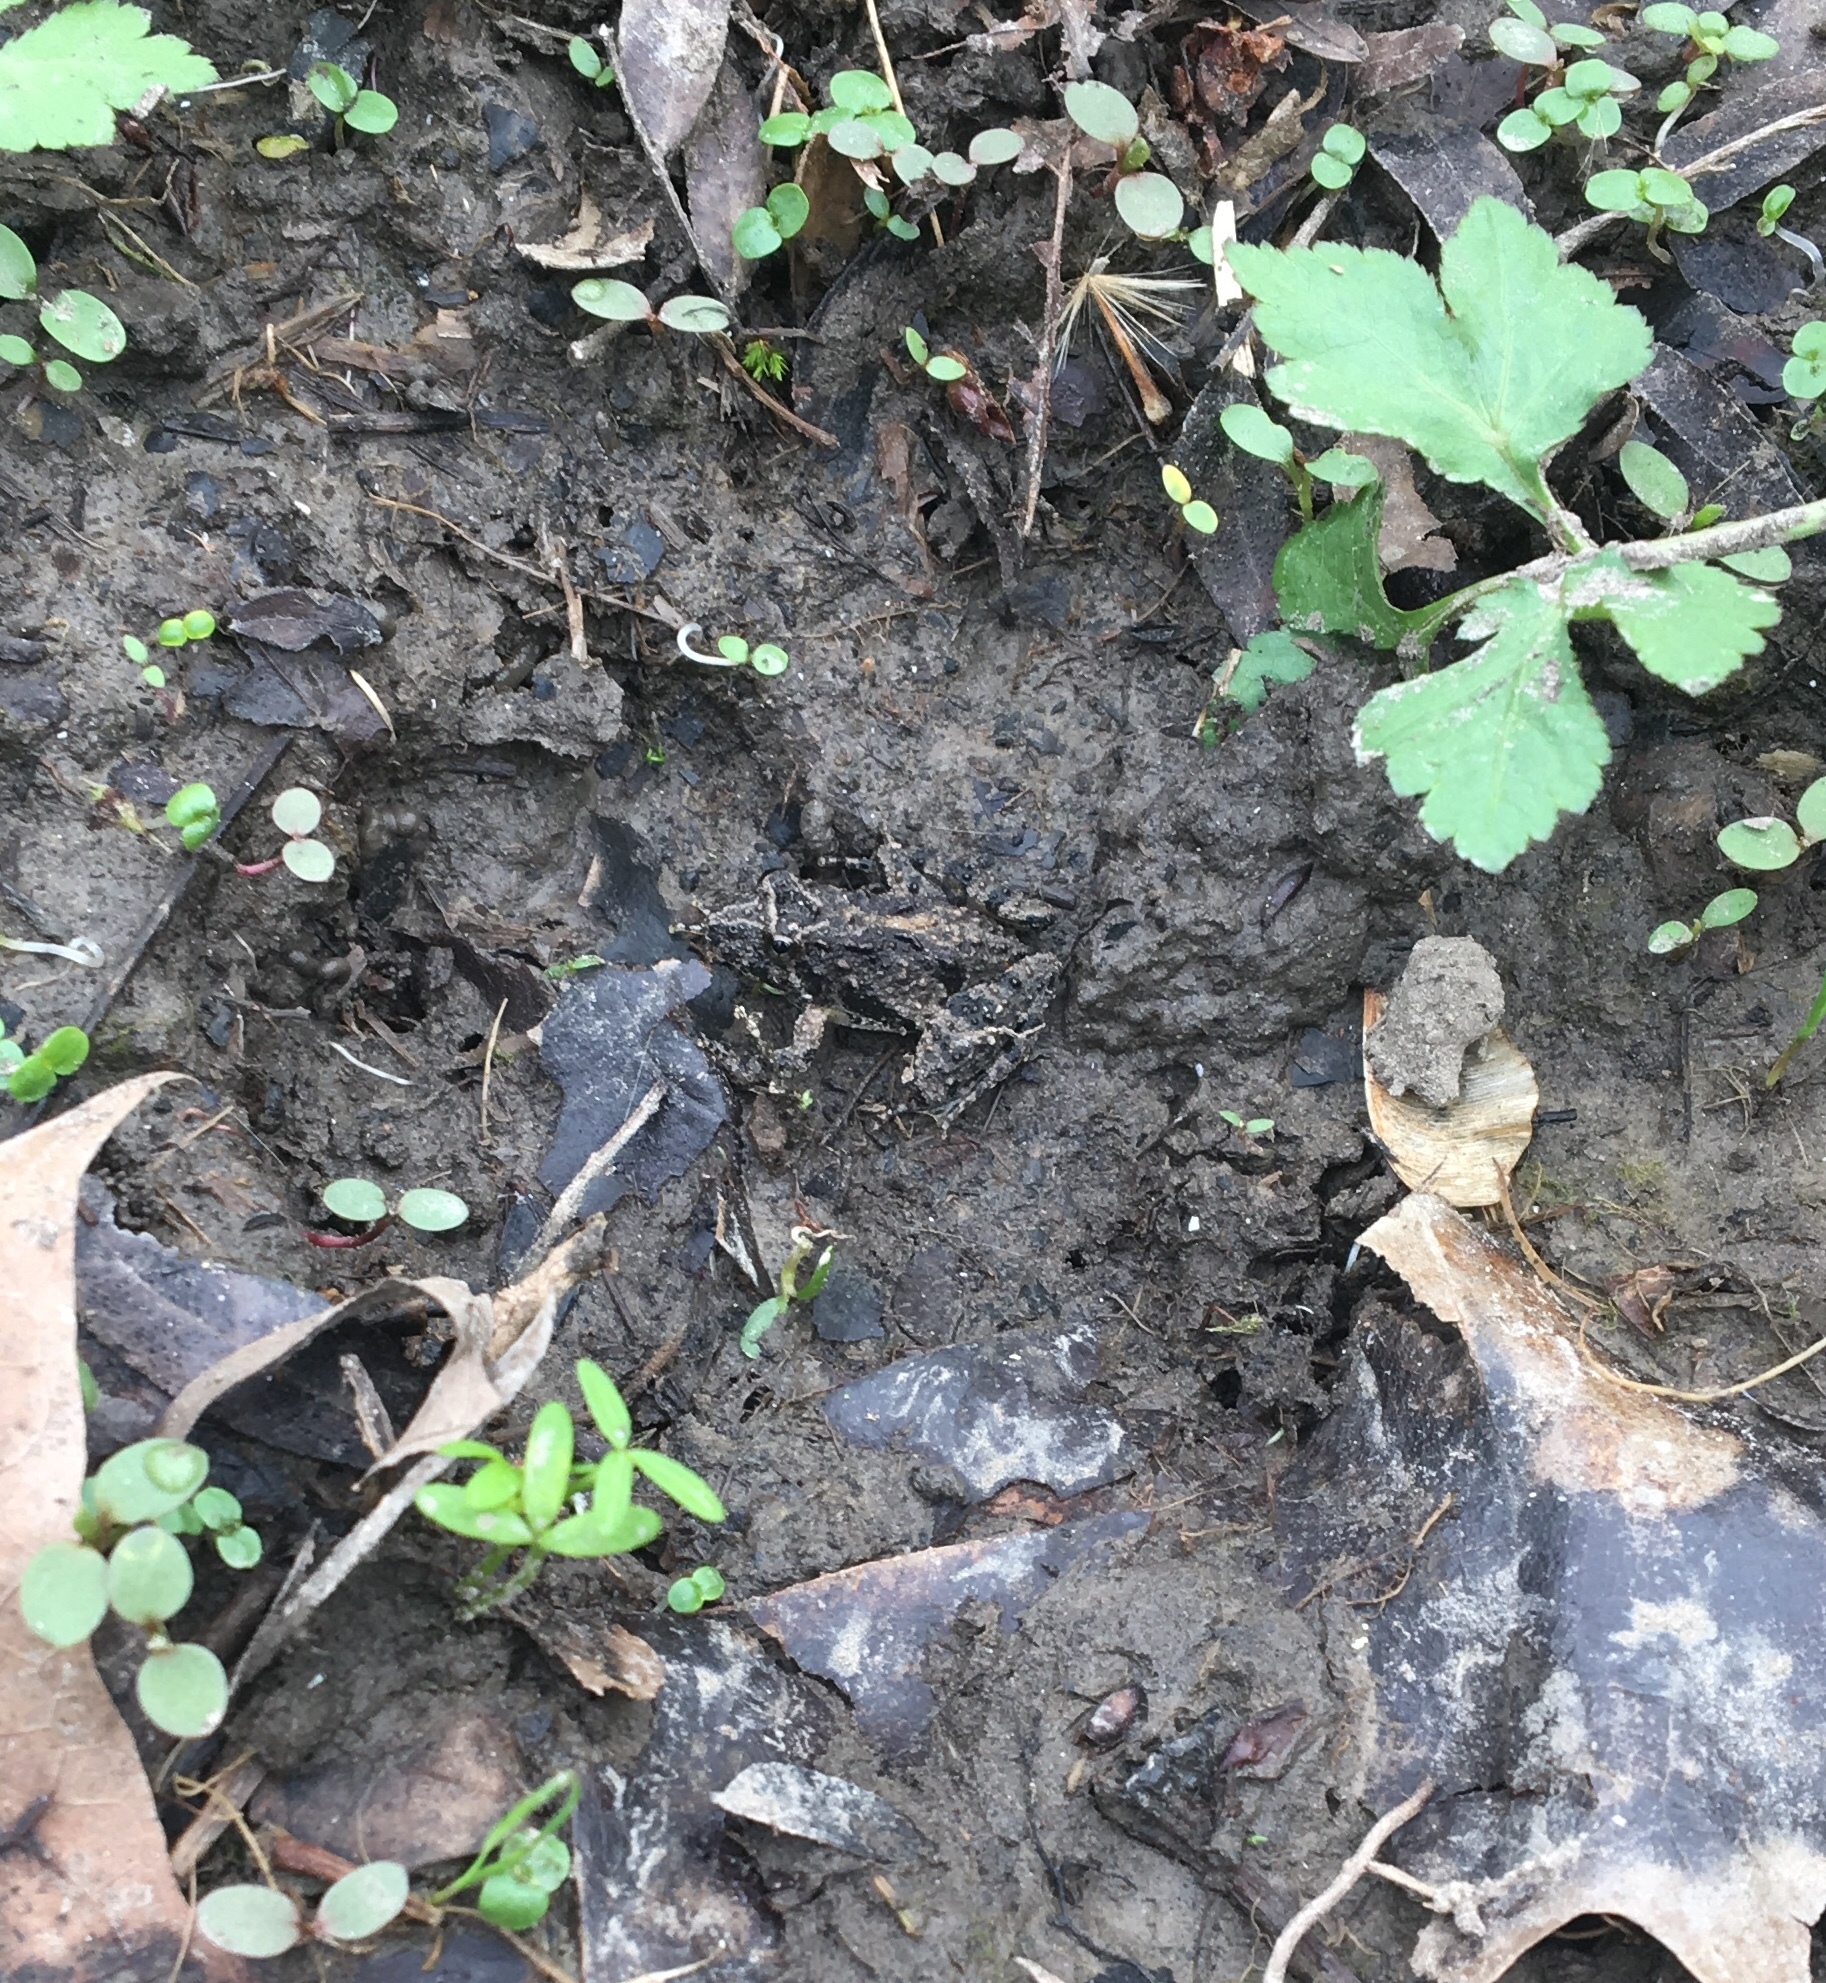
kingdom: Animalia
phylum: Chordata
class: Amphibia
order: Anura
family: Hylidae
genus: Acris
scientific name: Acris blanchardi
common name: Blanchard's cricket frog
